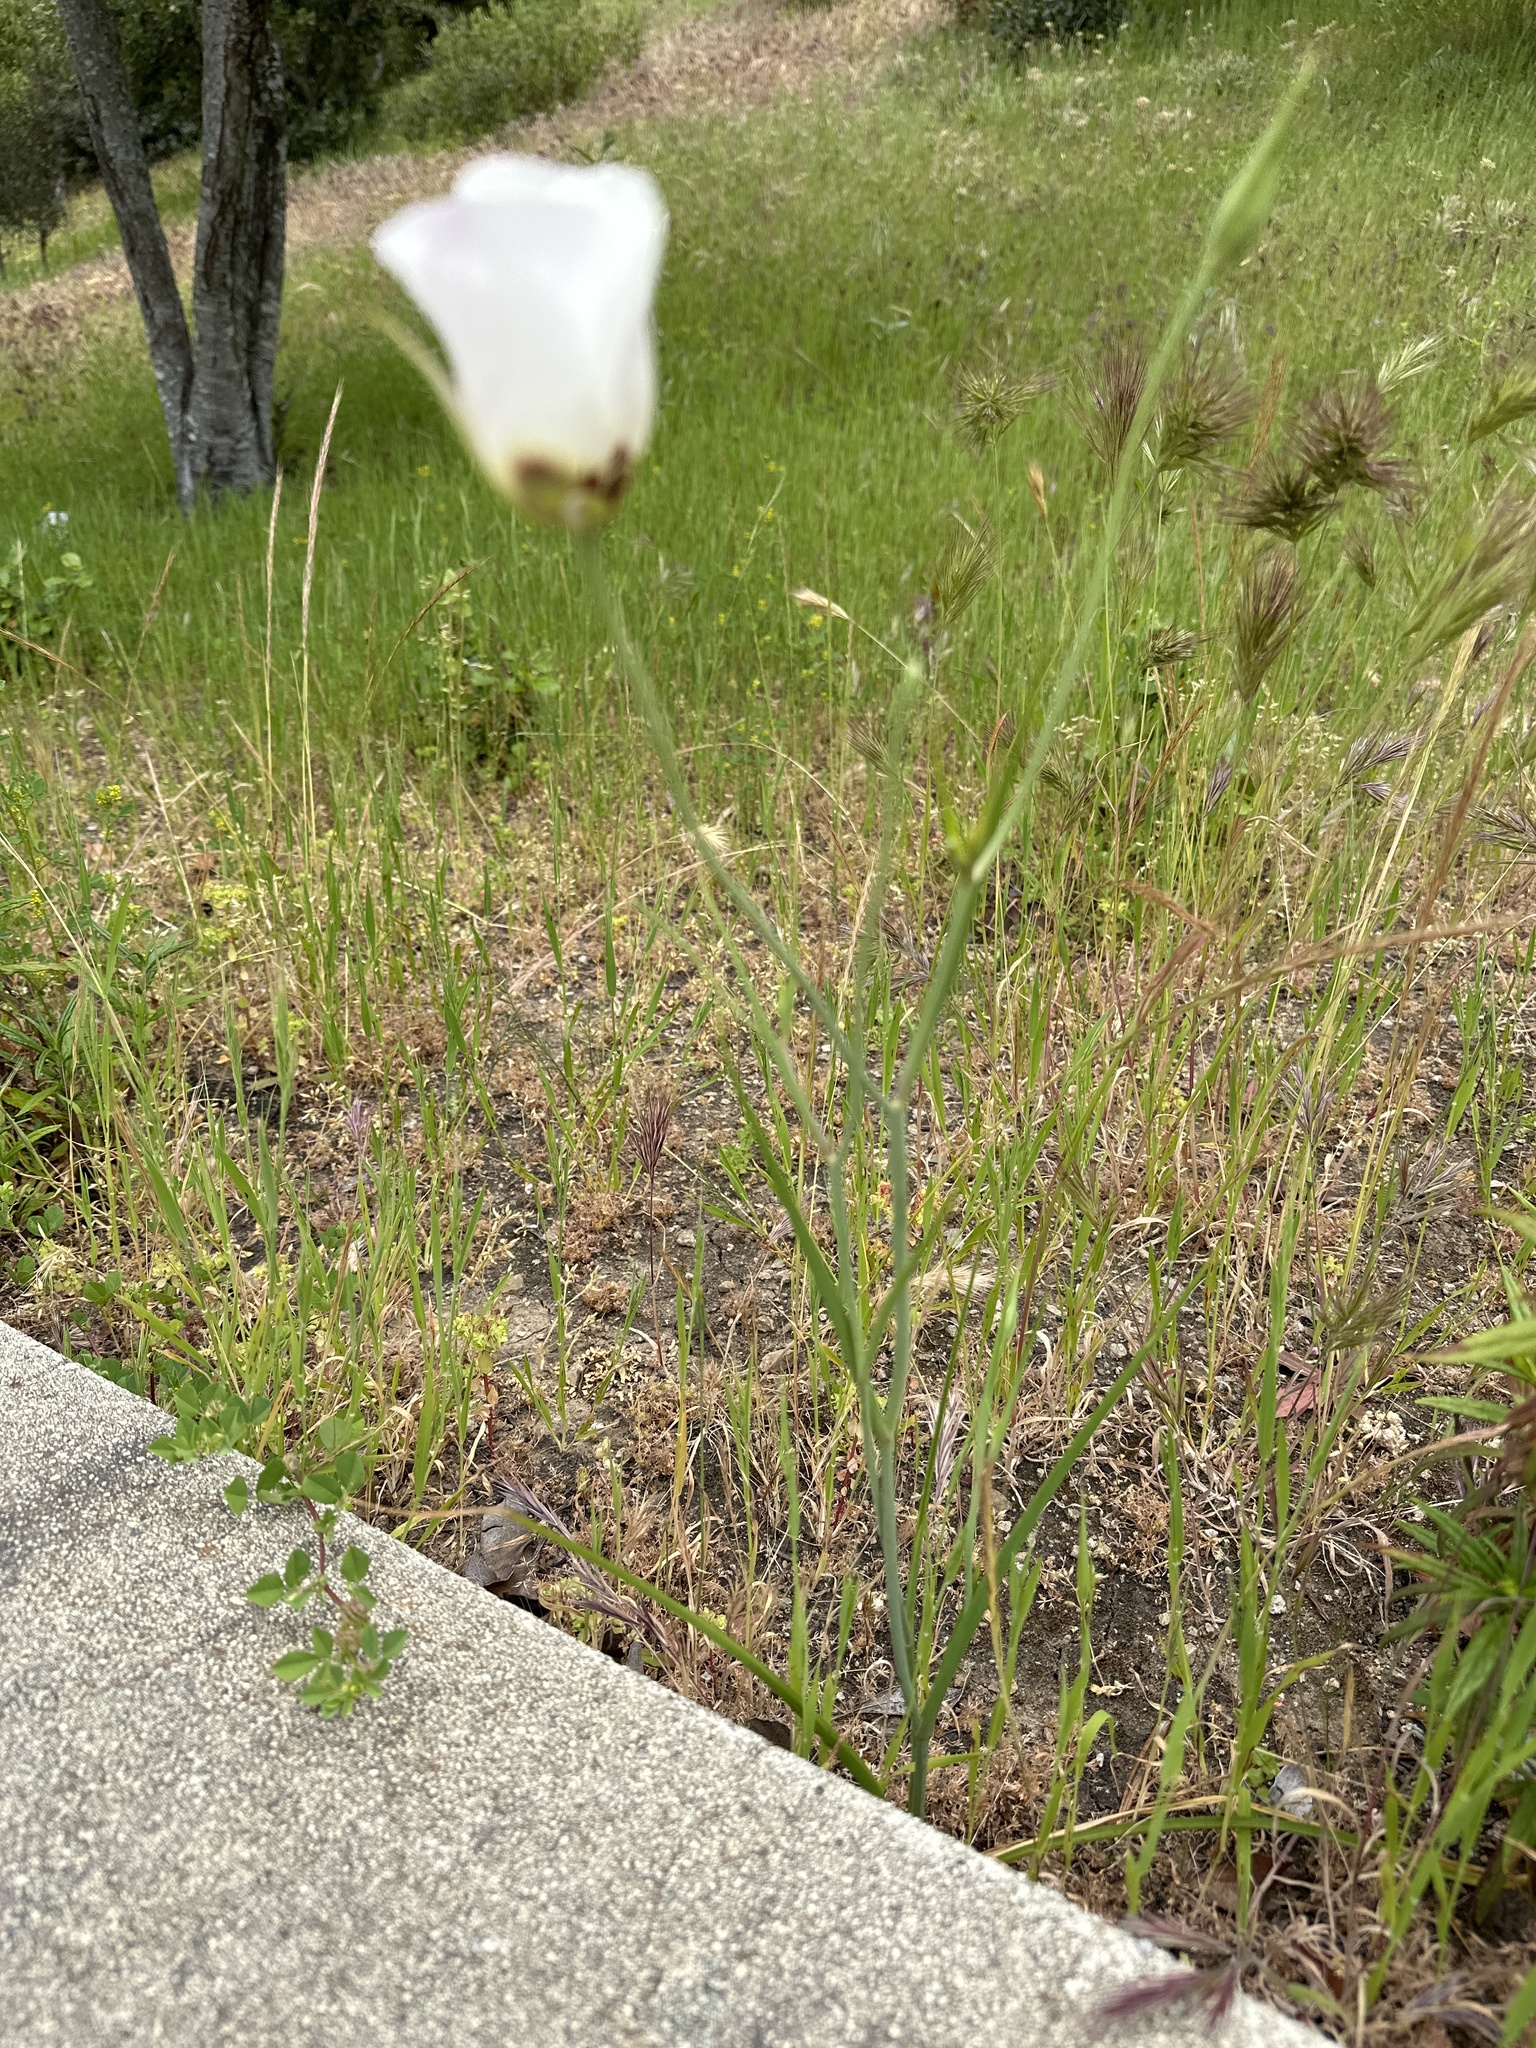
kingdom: Plantae
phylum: Tracheophyta
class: Liliopsida
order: Liliales
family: Liliaceae
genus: Calochortus
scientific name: Calochortus catalinae
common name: Catalina mariposa-lily
